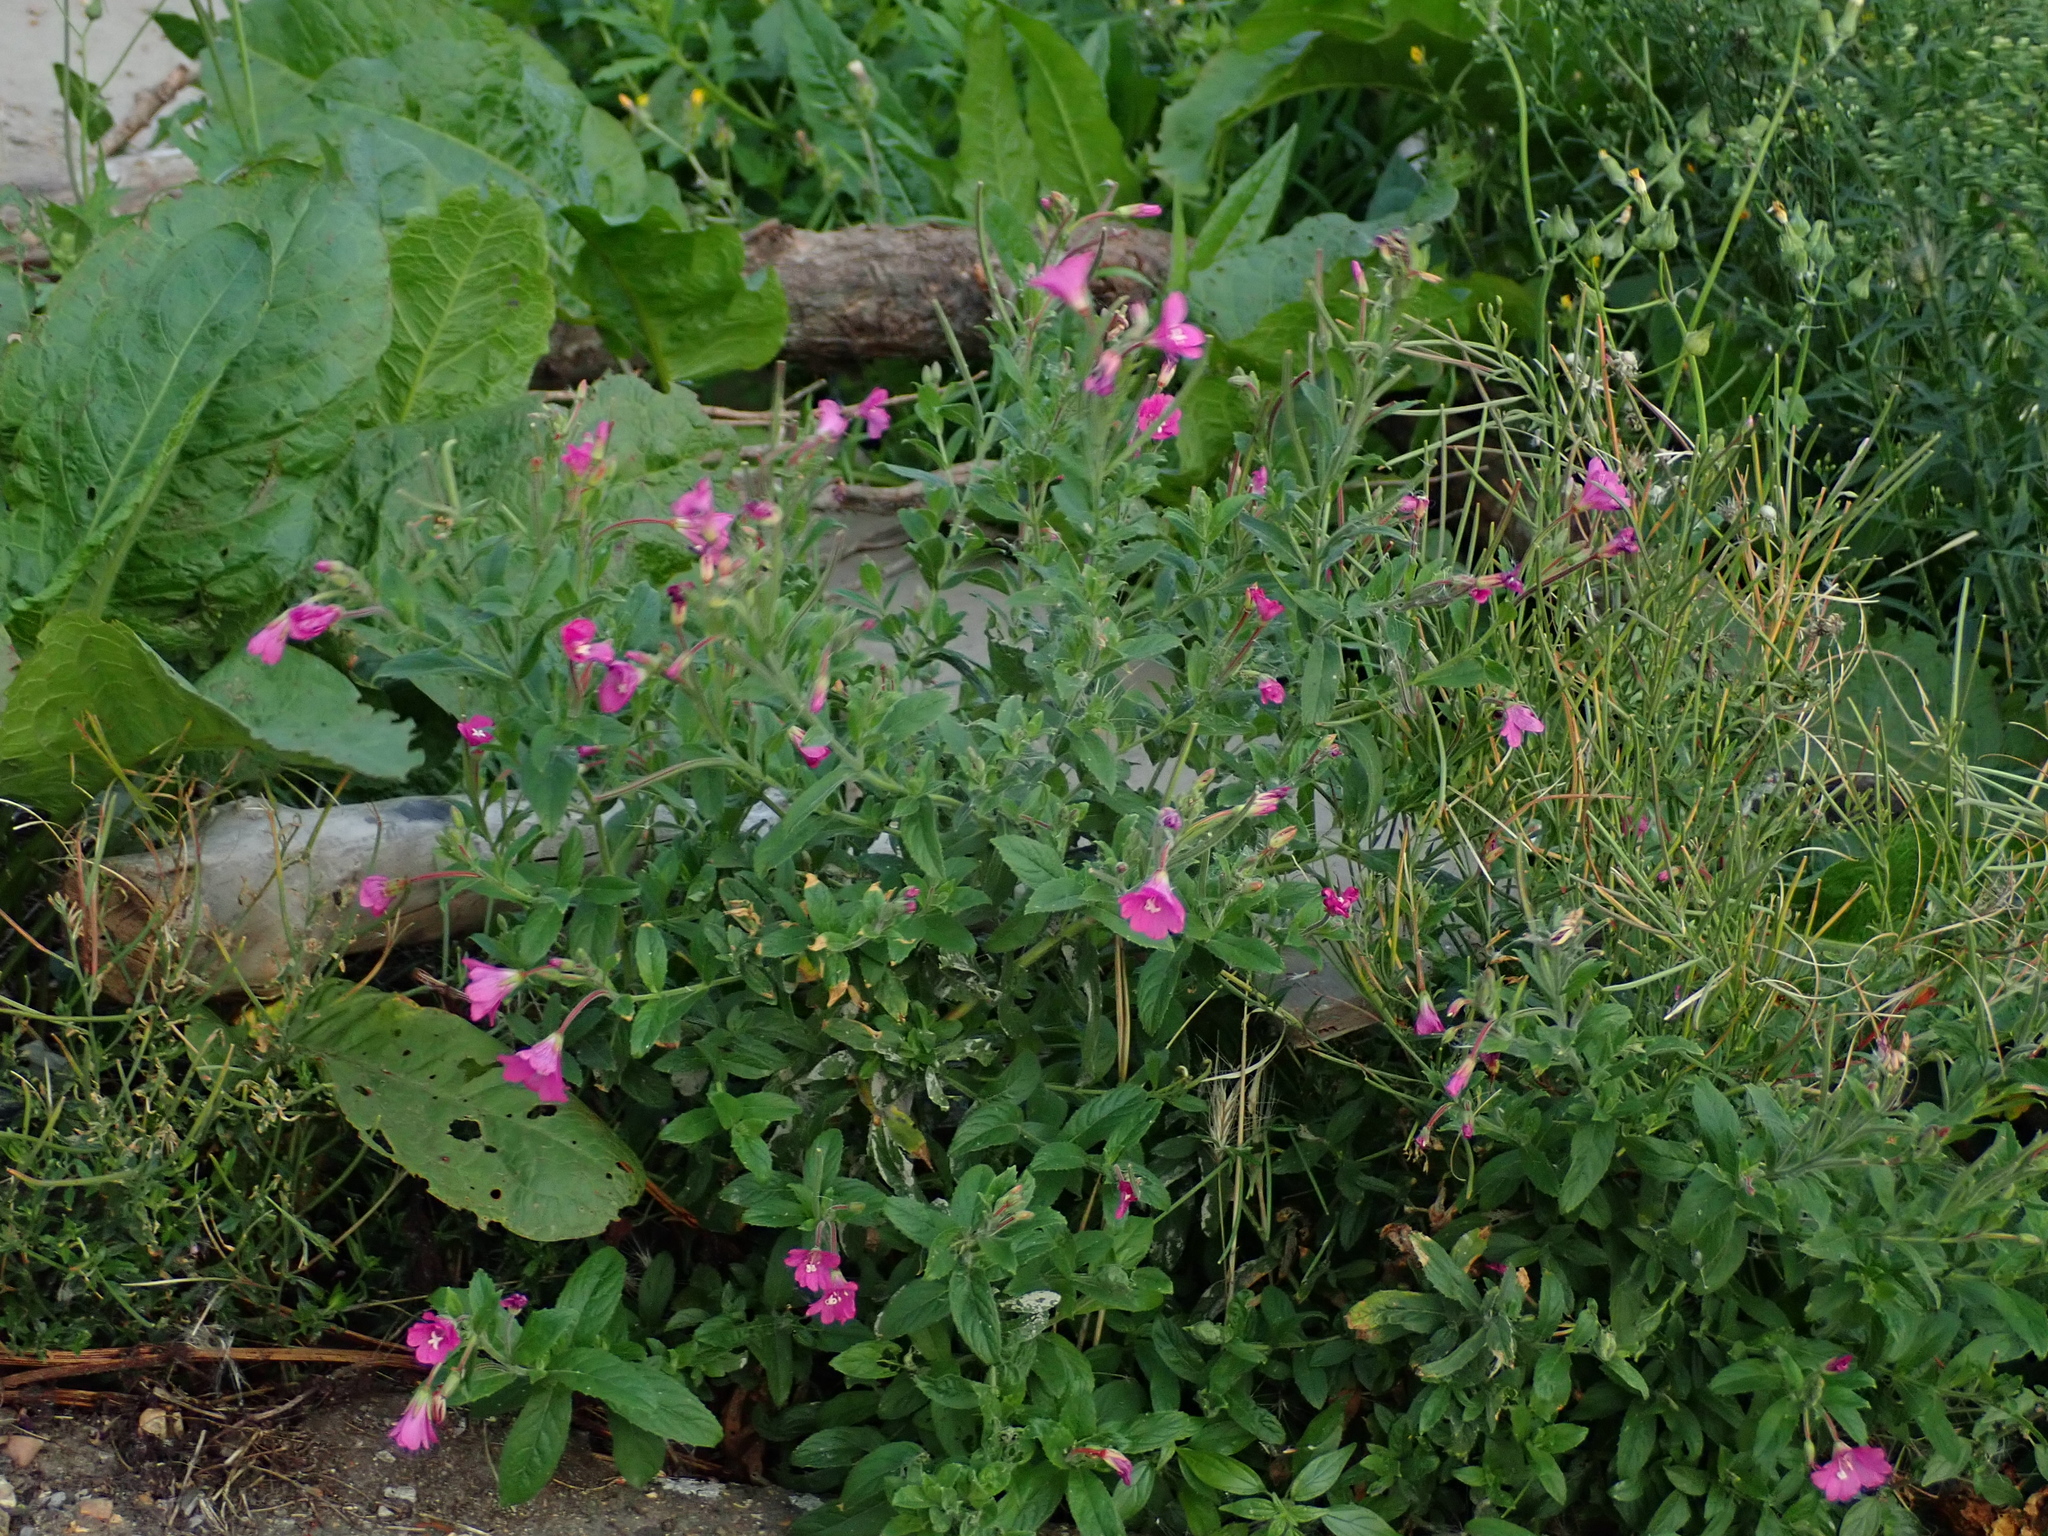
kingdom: Plantae
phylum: Tracheophyta
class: Magnoliopsida
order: Myrtales
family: Onagraceae
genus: Epilobium
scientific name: Epilobium hirsutum
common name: Great willowherb
